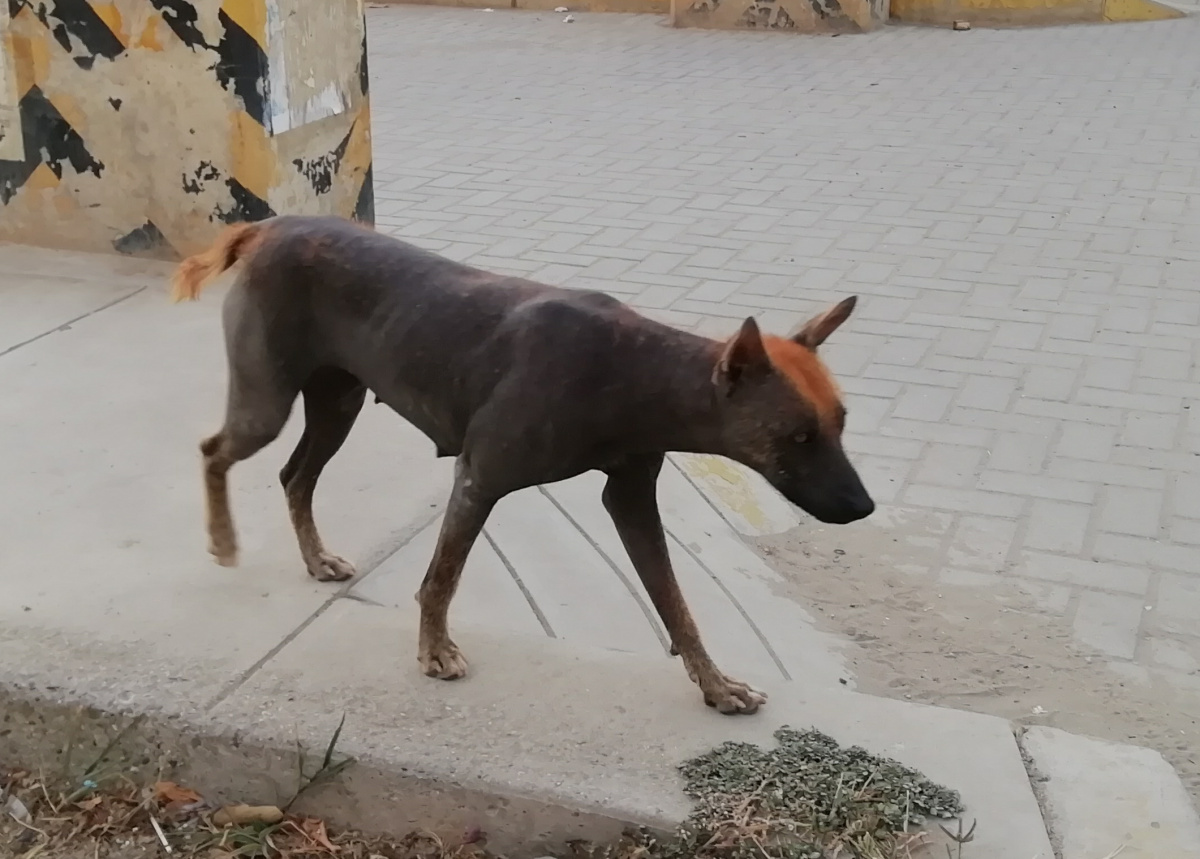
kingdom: Animalia
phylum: Chordata
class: Mammalia
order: Carnivora
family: Canidae
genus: Canis
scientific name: Canis lupus
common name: Gray wolf
